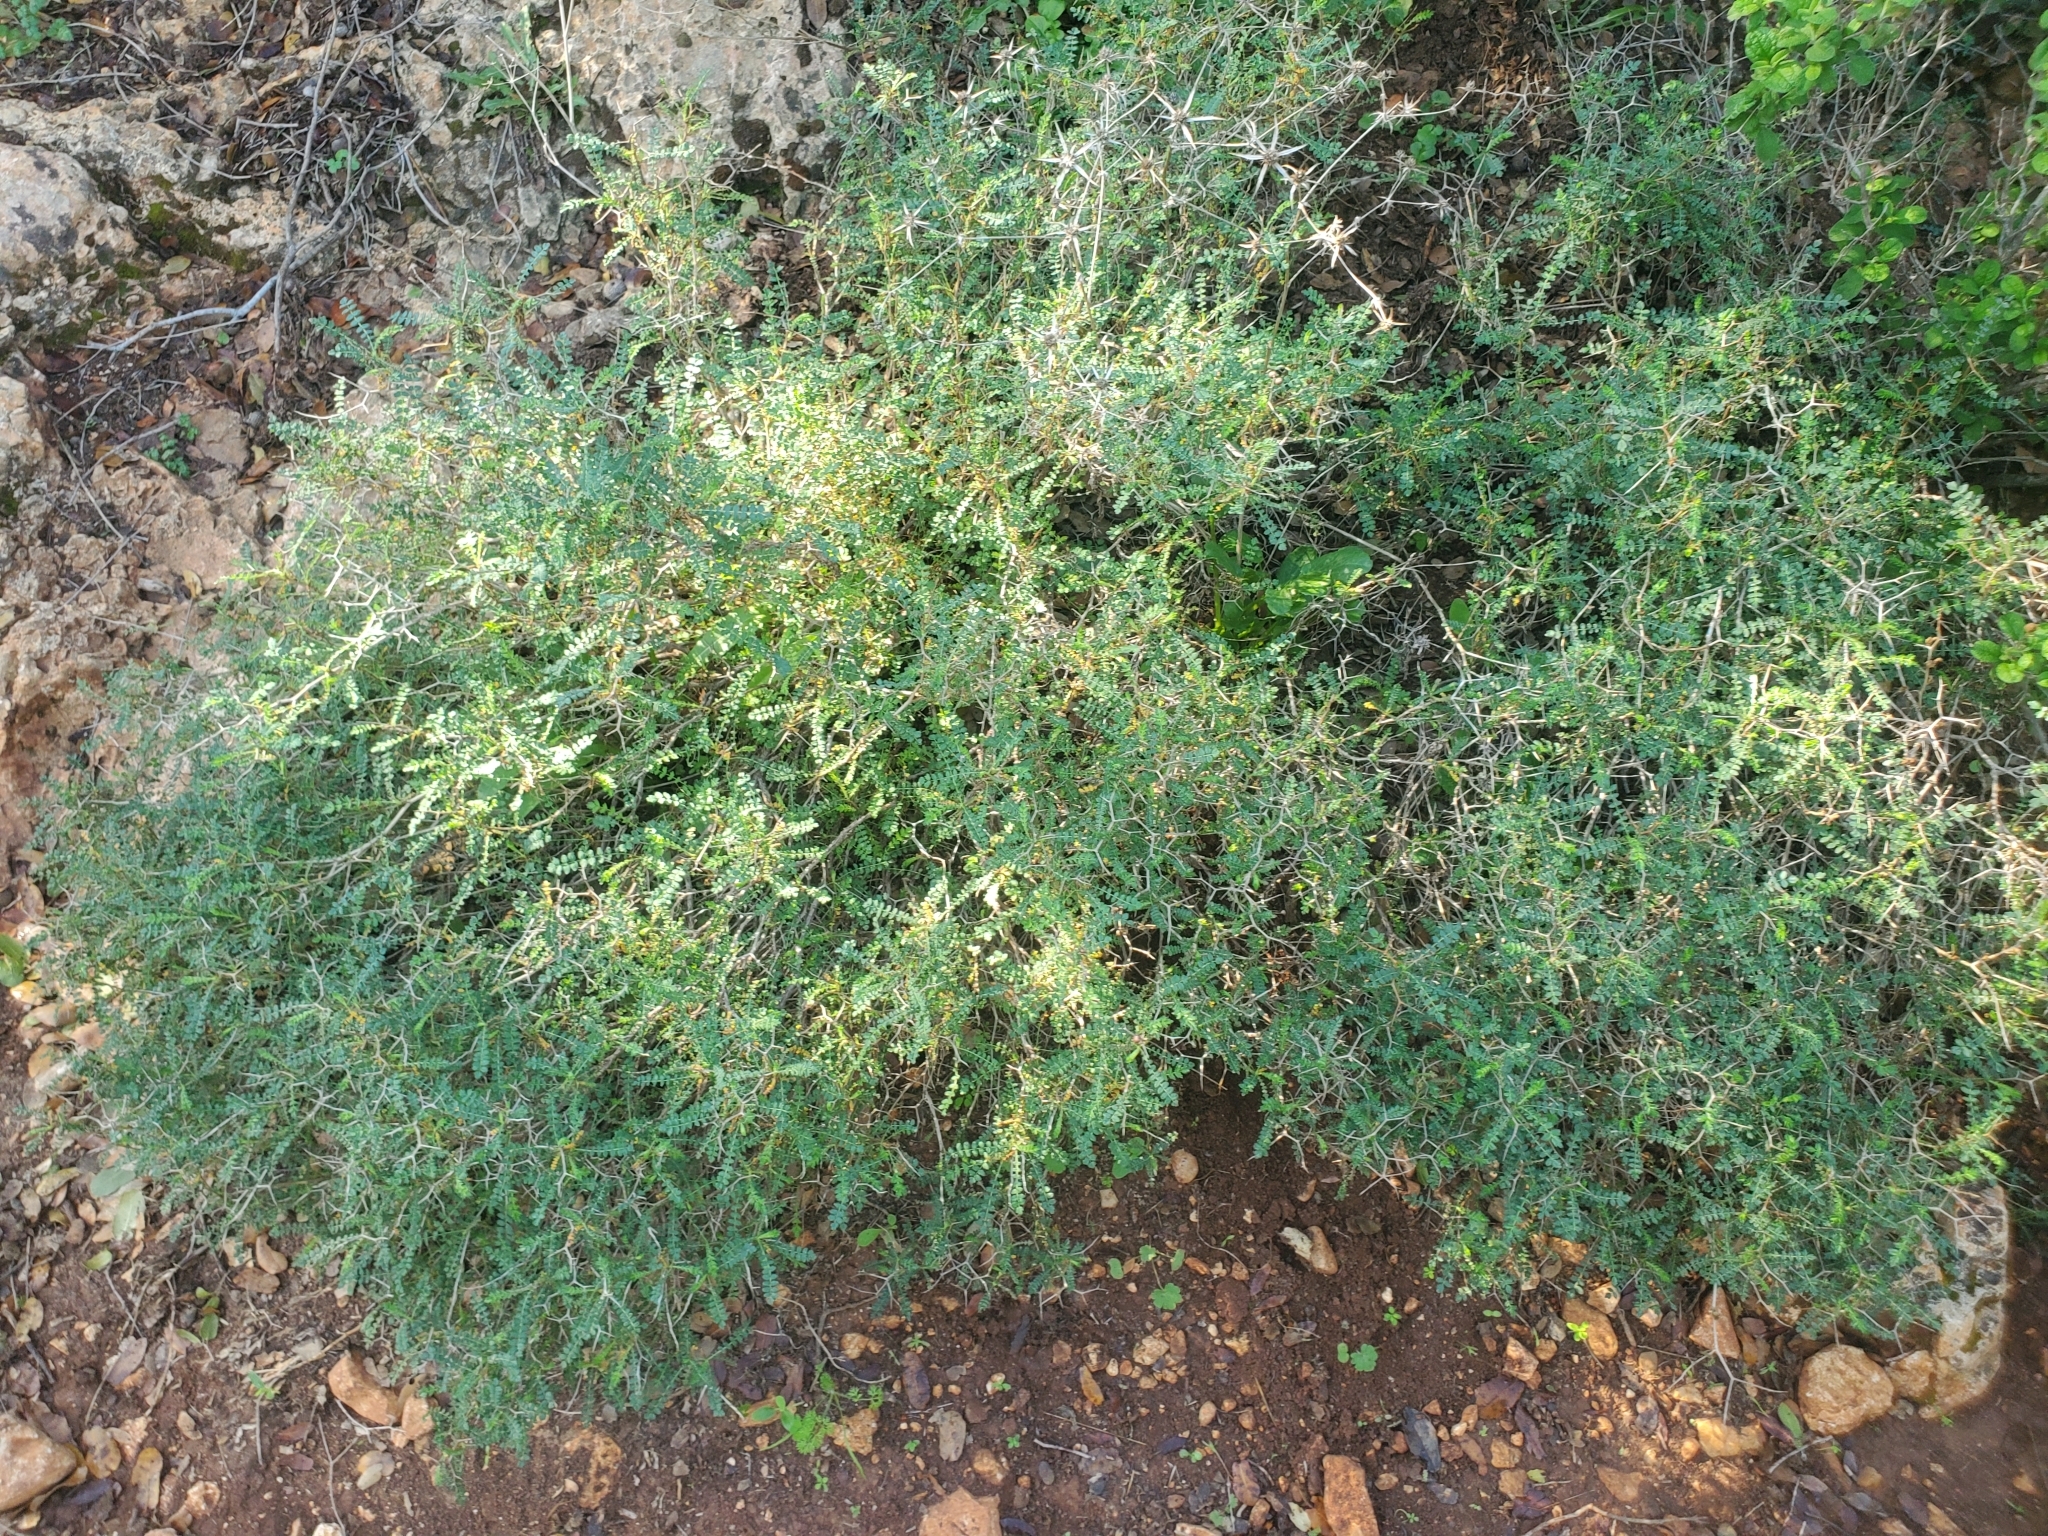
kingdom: Plantae
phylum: Tracheophyta
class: Magnoliopsida
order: Rosales
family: Rosaceae
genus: Sarcopoterium
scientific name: Sarcopoterium spinosum
